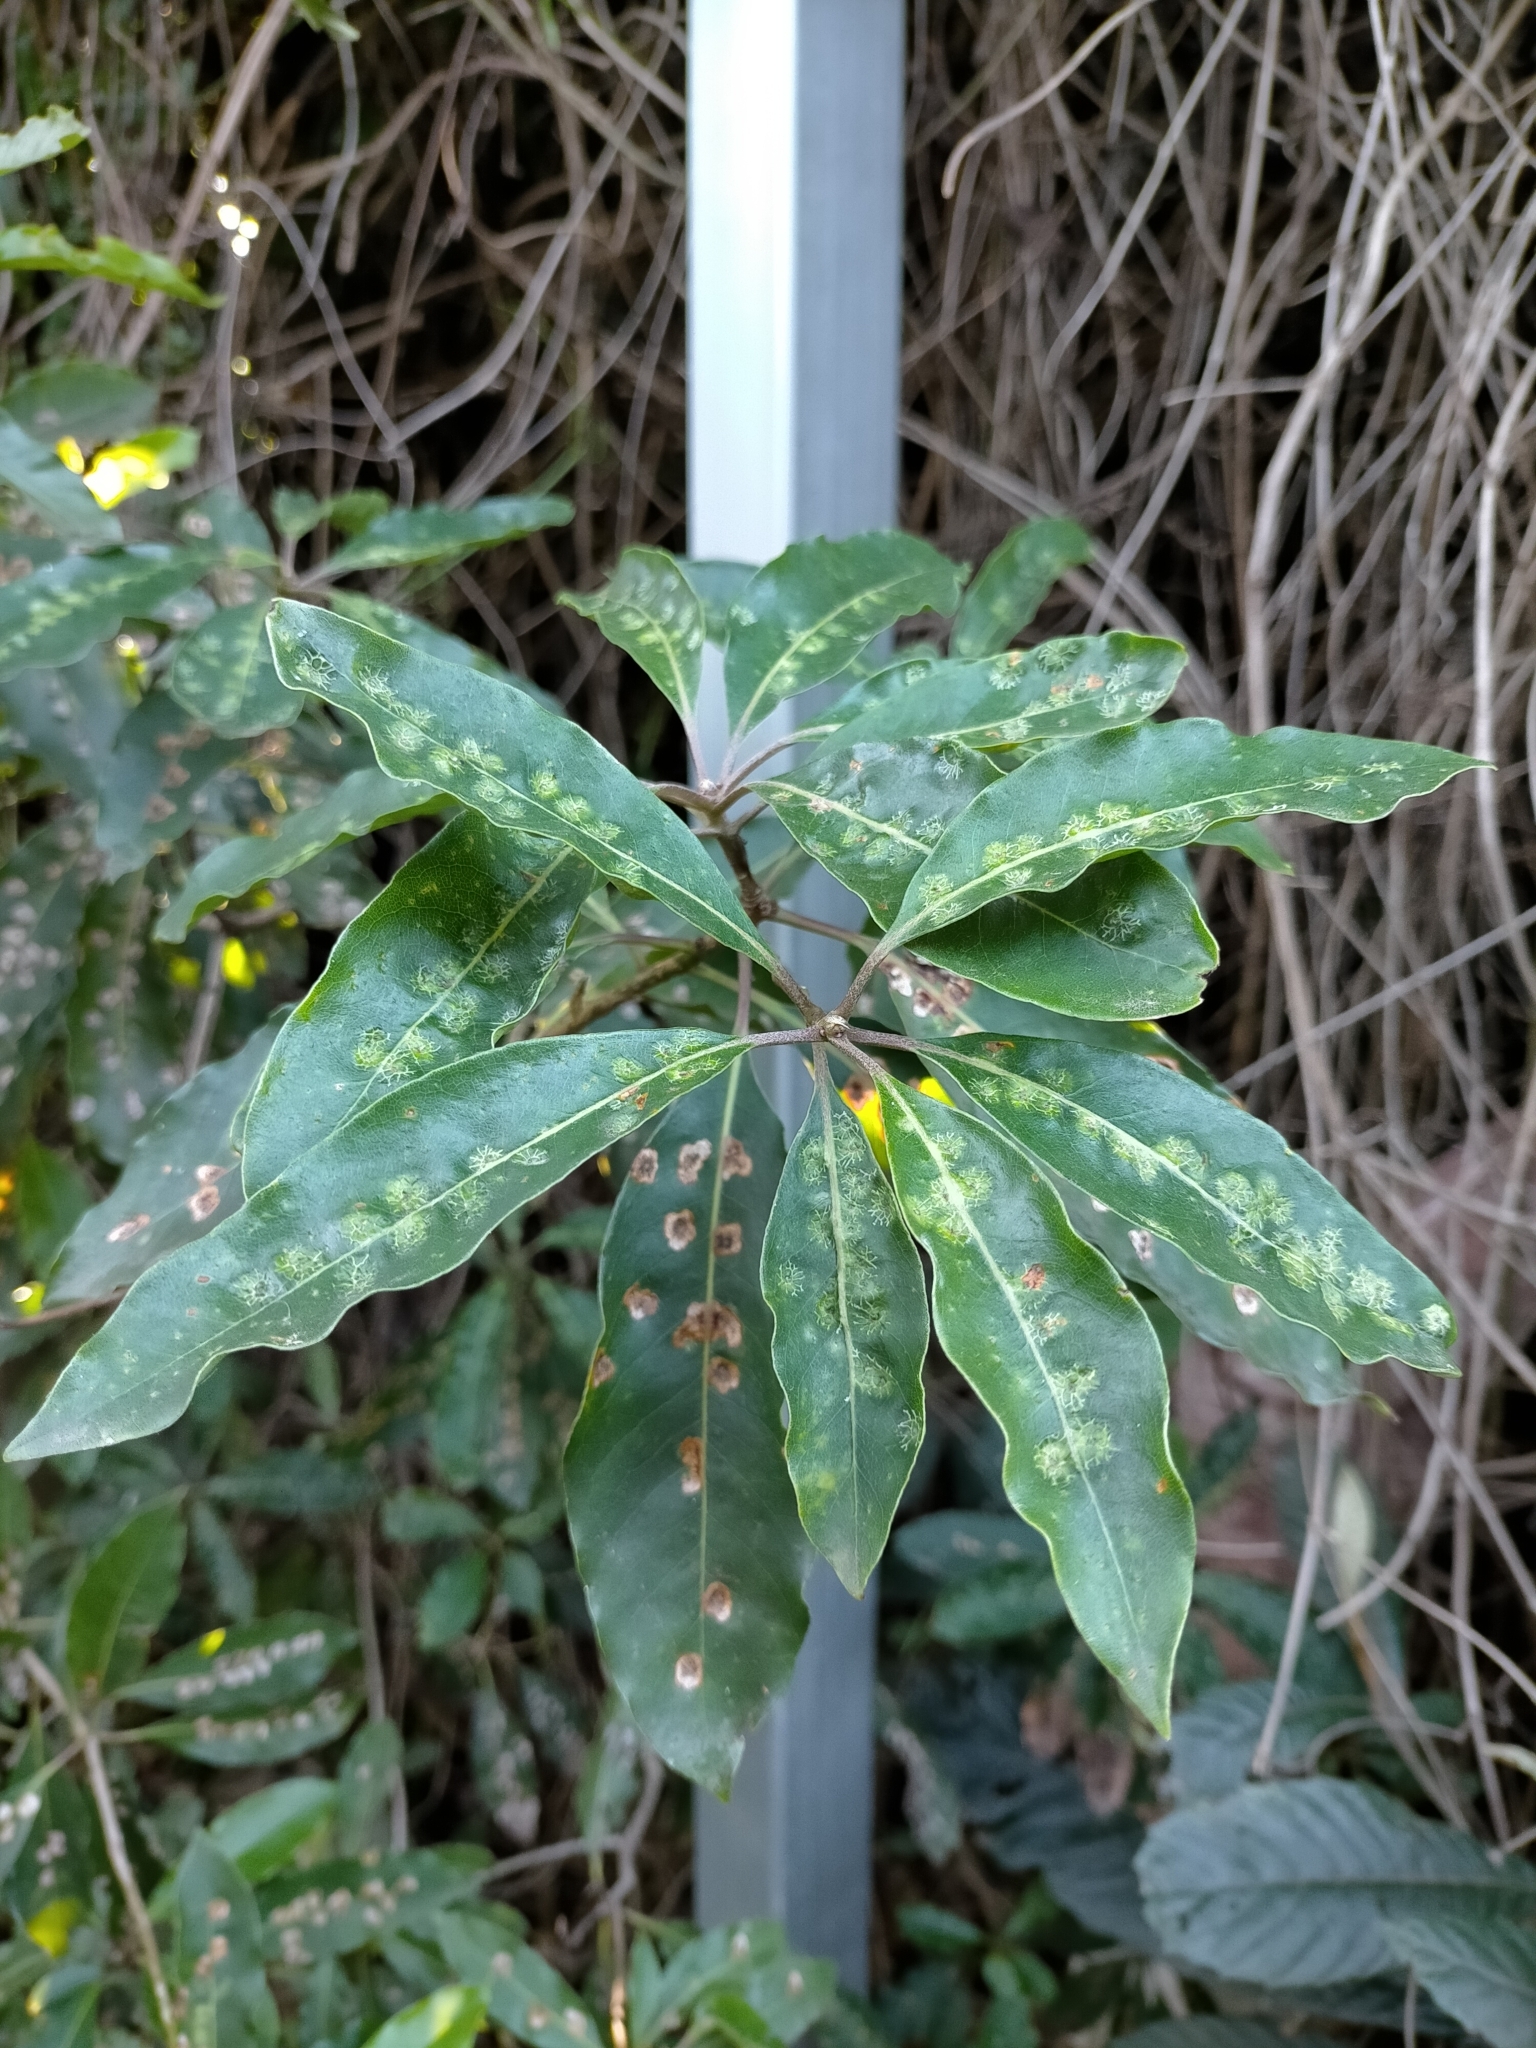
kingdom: Animalia
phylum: Arthropoda
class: Insecta
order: Diptera
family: Agromyzidae
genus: Phytoliriomyza
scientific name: Phytoliriomyza pittosporophylli
